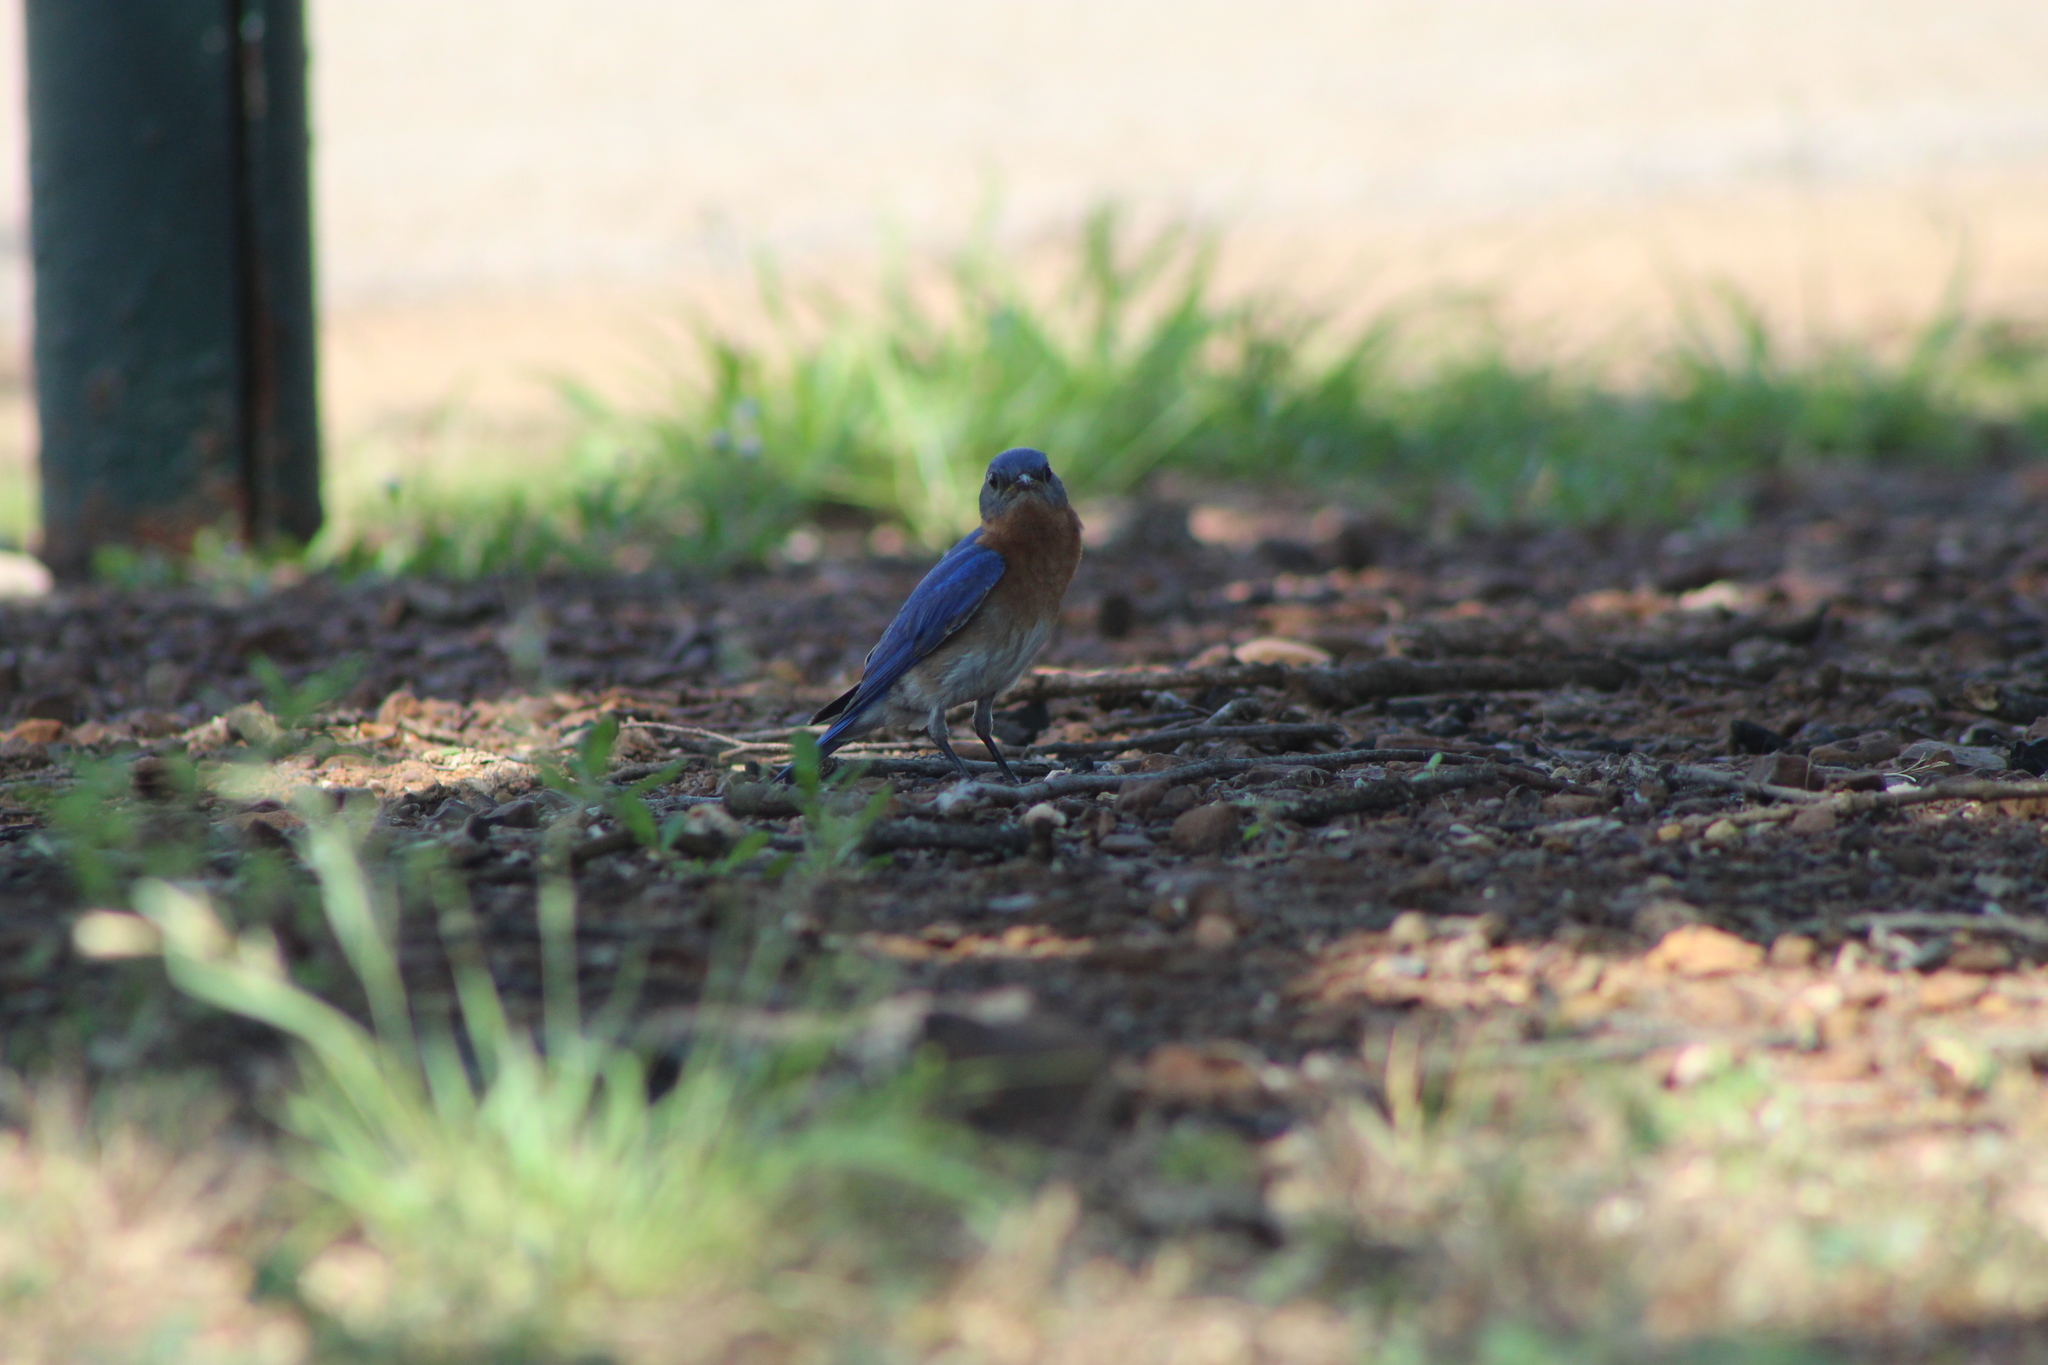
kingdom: Animalia
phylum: Chordata
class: Aves
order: Passeriformes
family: Turdidae
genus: Sialia
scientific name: Sialia sialis
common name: Eastern bluebird
